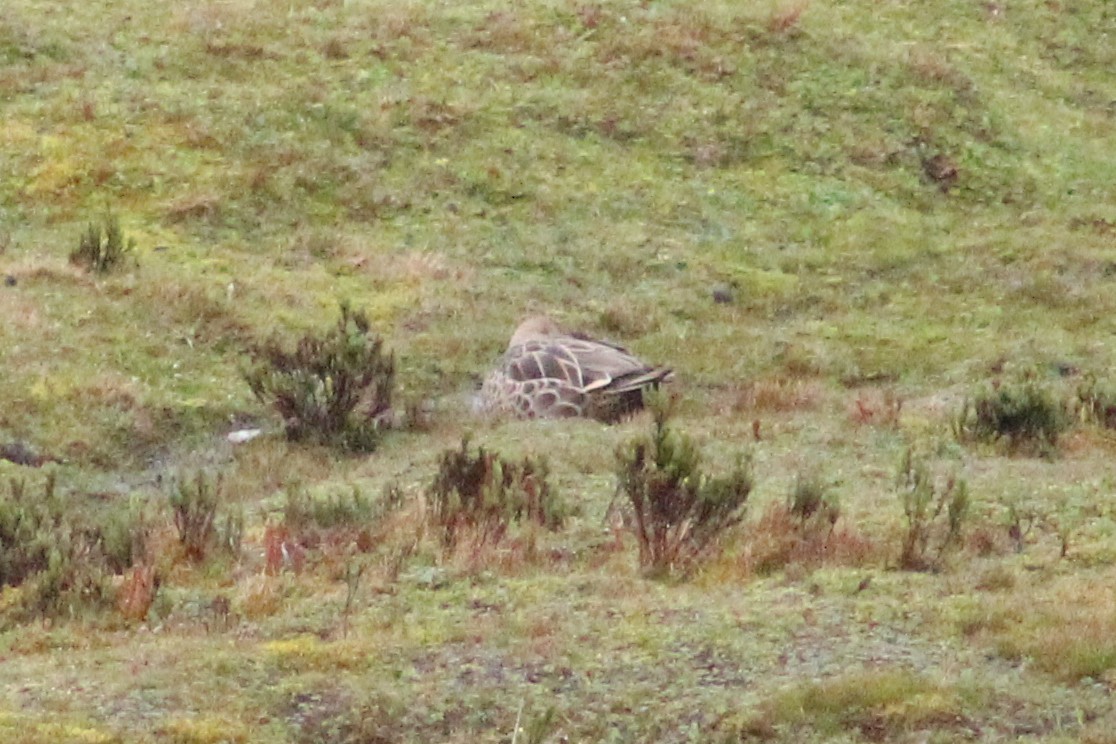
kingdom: Animalia
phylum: Chordata
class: Aves
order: Anseriformes
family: Anatidae
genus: Anas
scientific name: Anas georgica
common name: Yellow-billed pintail
